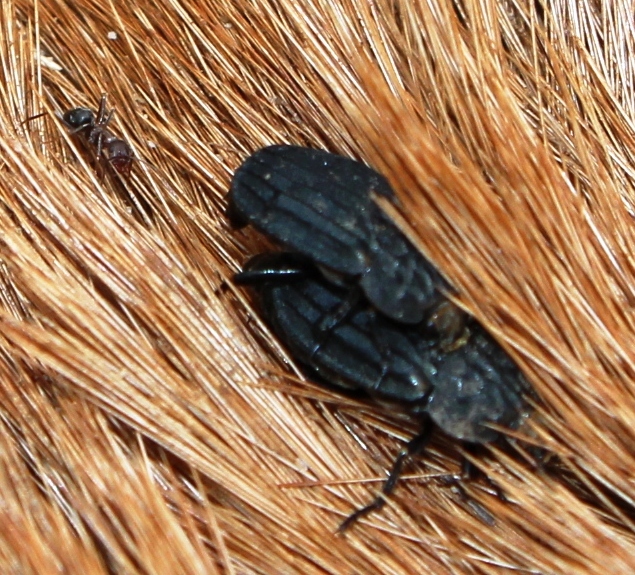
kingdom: Animalia
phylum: Arthropoda
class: Insecta
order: Coleoptera
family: Staphylinidae
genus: Thanatophilus
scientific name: Thanatophilus capensis
